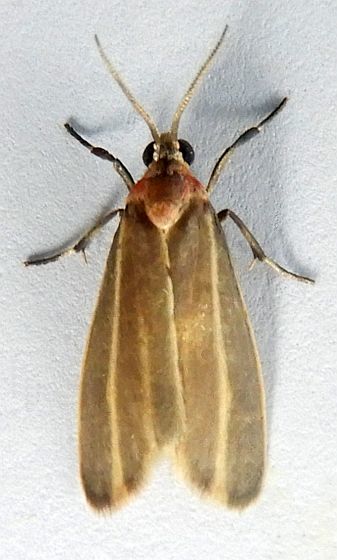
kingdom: Animalia
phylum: Arthropoda
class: Insecta
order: Lepidoptera
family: Erebidae
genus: Haematomis
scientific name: Haematomis uniformis
